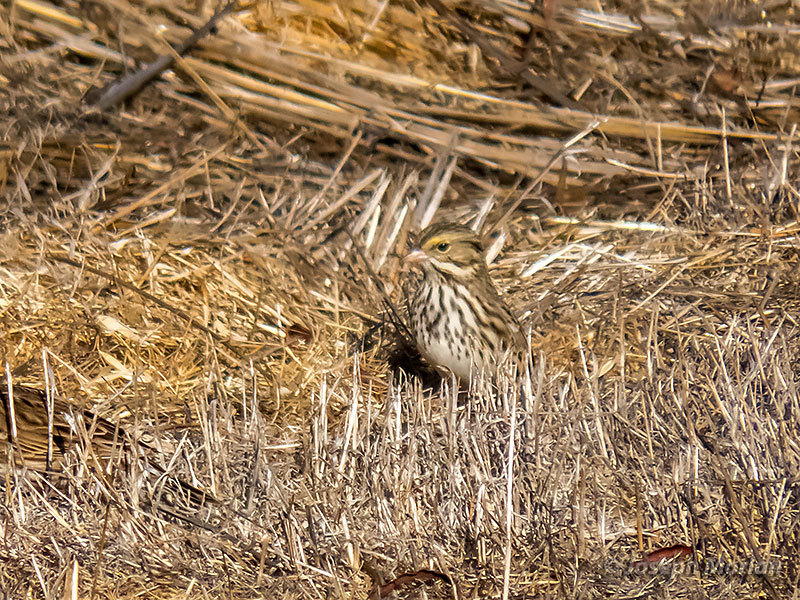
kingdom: Animalia
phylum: Chordata
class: Aves
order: Passeriformes
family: Passerellidae
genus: Passerculus
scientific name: Passerculus sandwichensis
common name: Savannah sparrow
